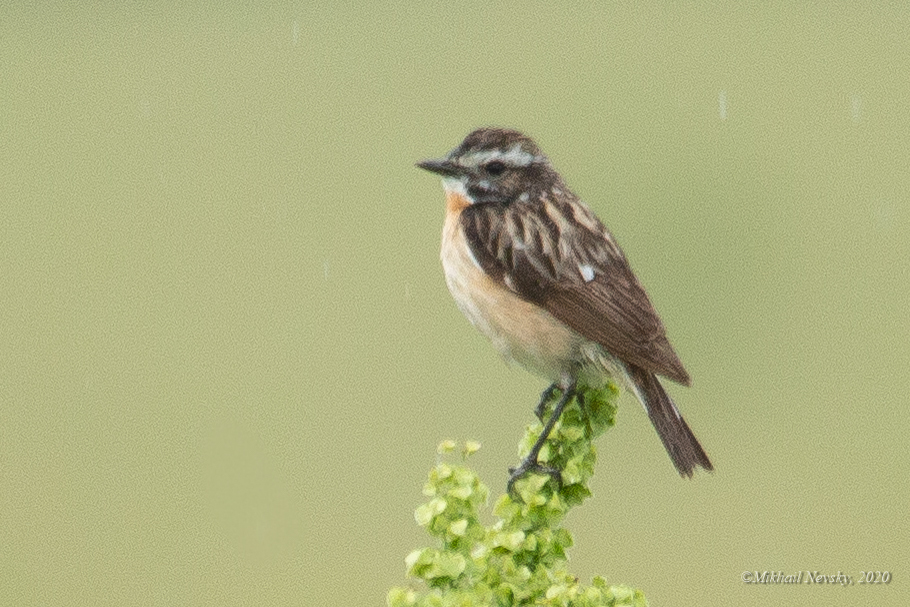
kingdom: Animalia
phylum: Chordata
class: Aves
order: Passeriformes
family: Muscicapidae
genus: Saxicola
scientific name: Saxicola rubetra
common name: Whinchat
